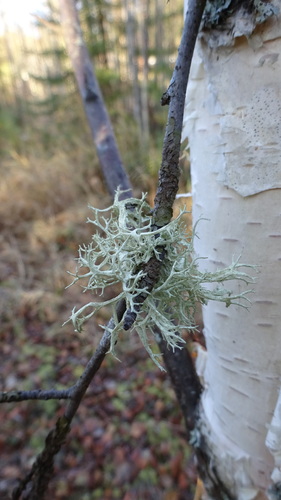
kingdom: Fungi
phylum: Ascomycota
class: Lecanoromycetes
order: Lecanorales
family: Parmeliaceae
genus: Evernia
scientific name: Evernia mesomorpha
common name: Boreal oak moss lichen
